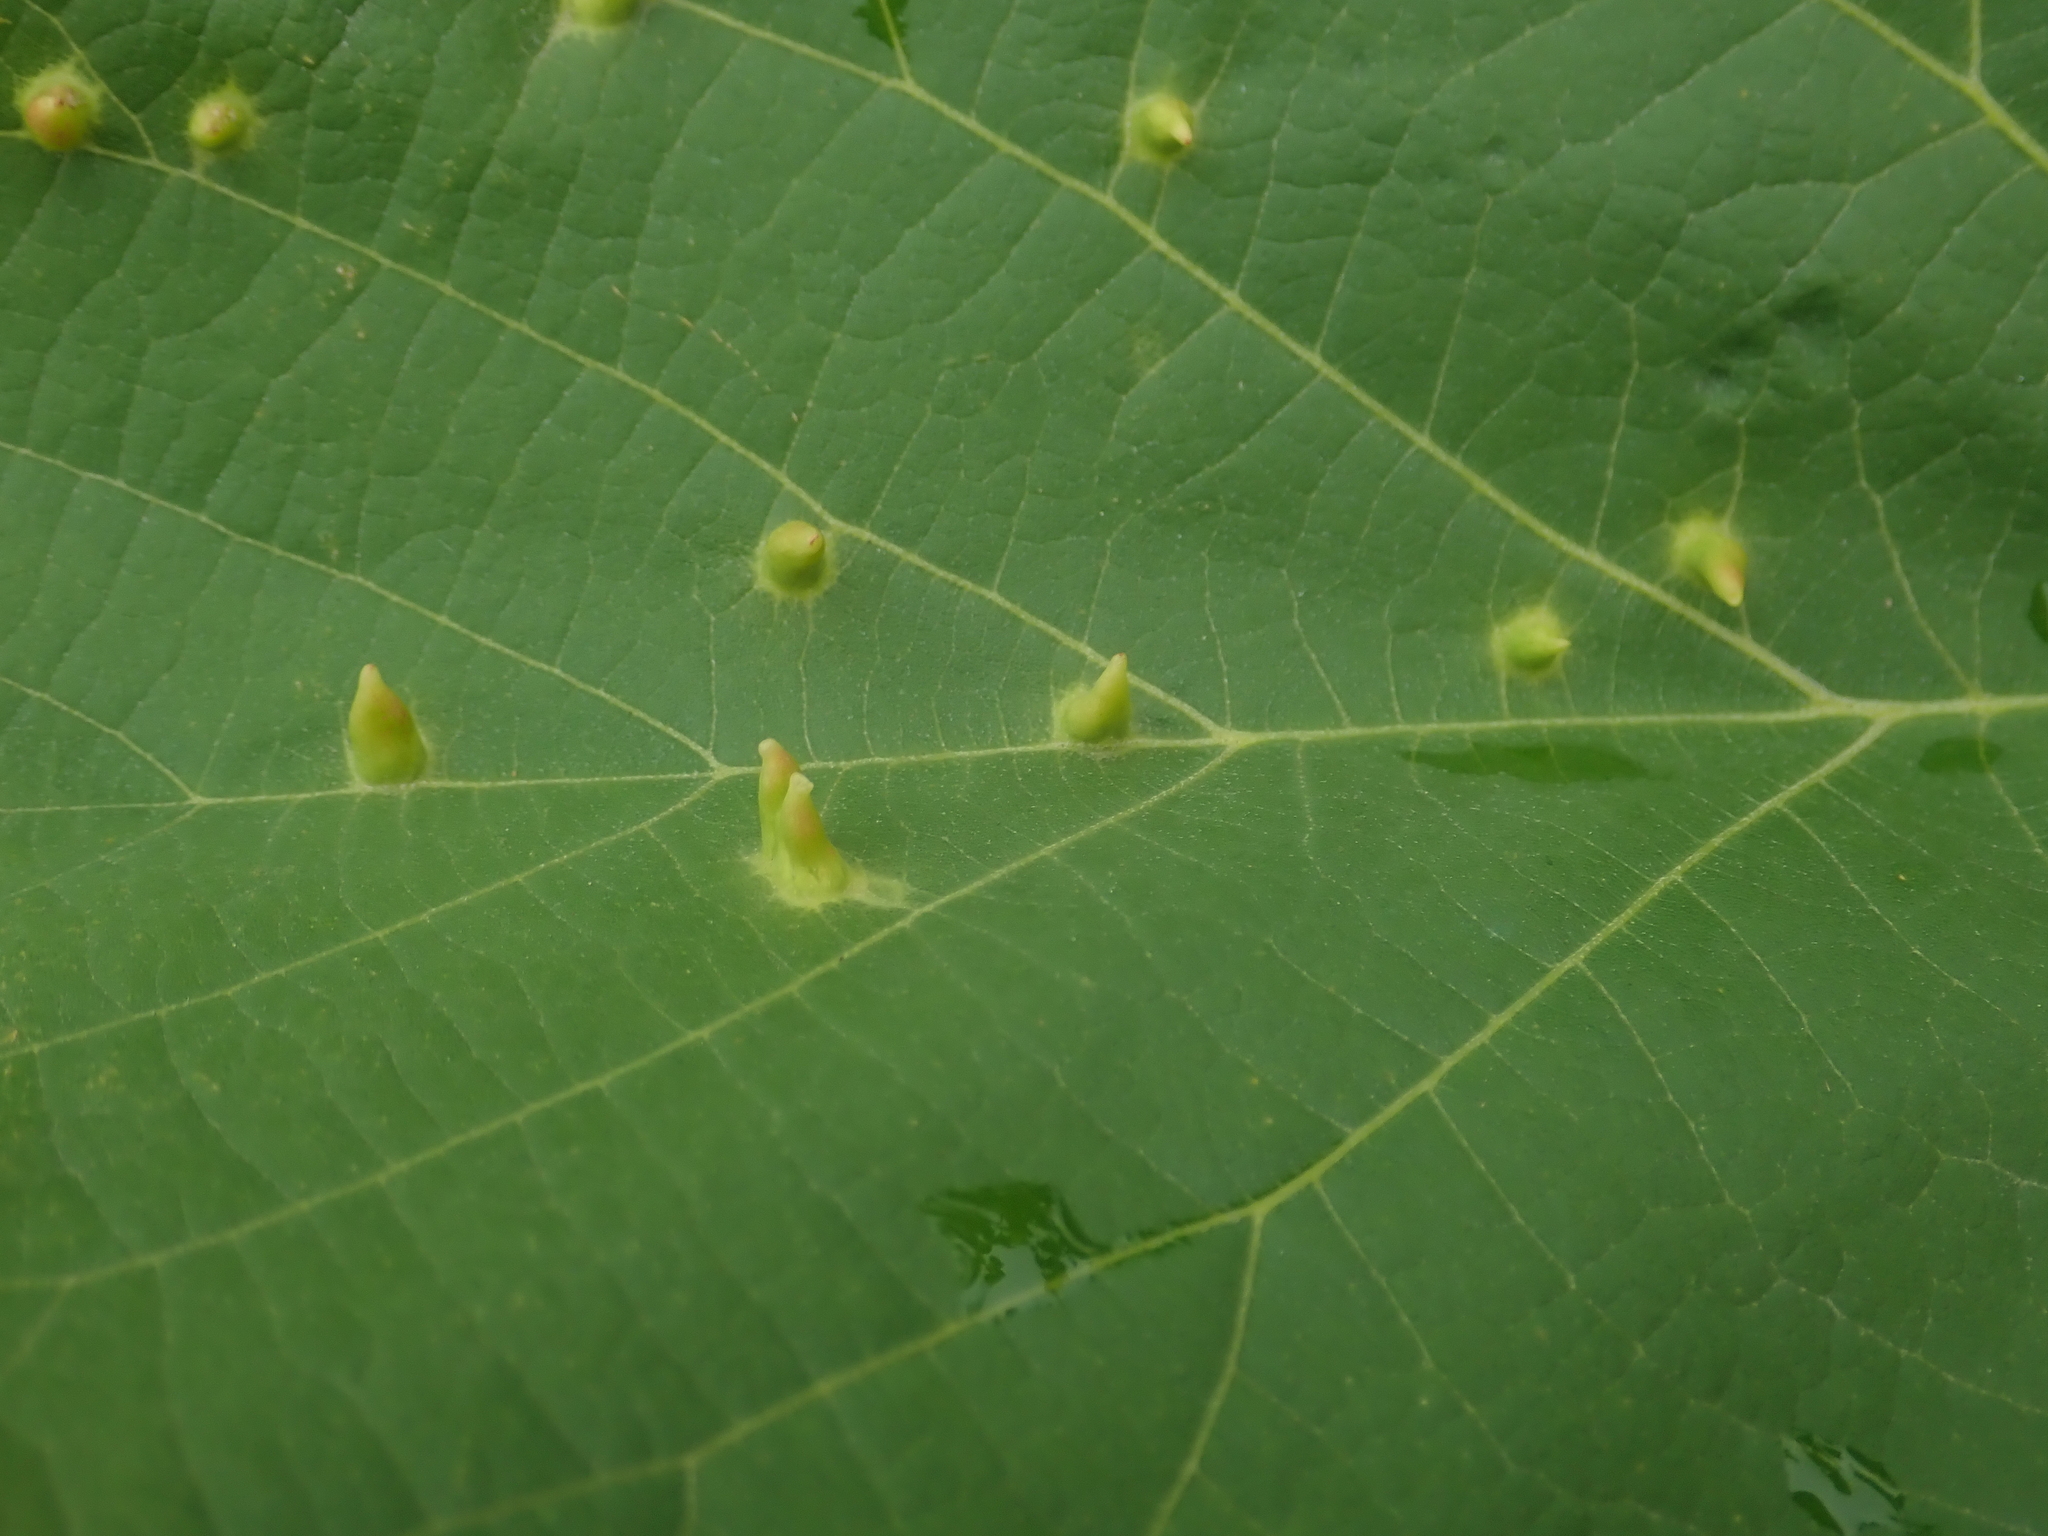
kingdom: Animalia
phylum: Arthropoda
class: Arachnida
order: Trombidiformes
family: Eriophyidae
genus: Eriophyes
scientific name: Eriophyes tiliae
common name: Red nail gall mite
